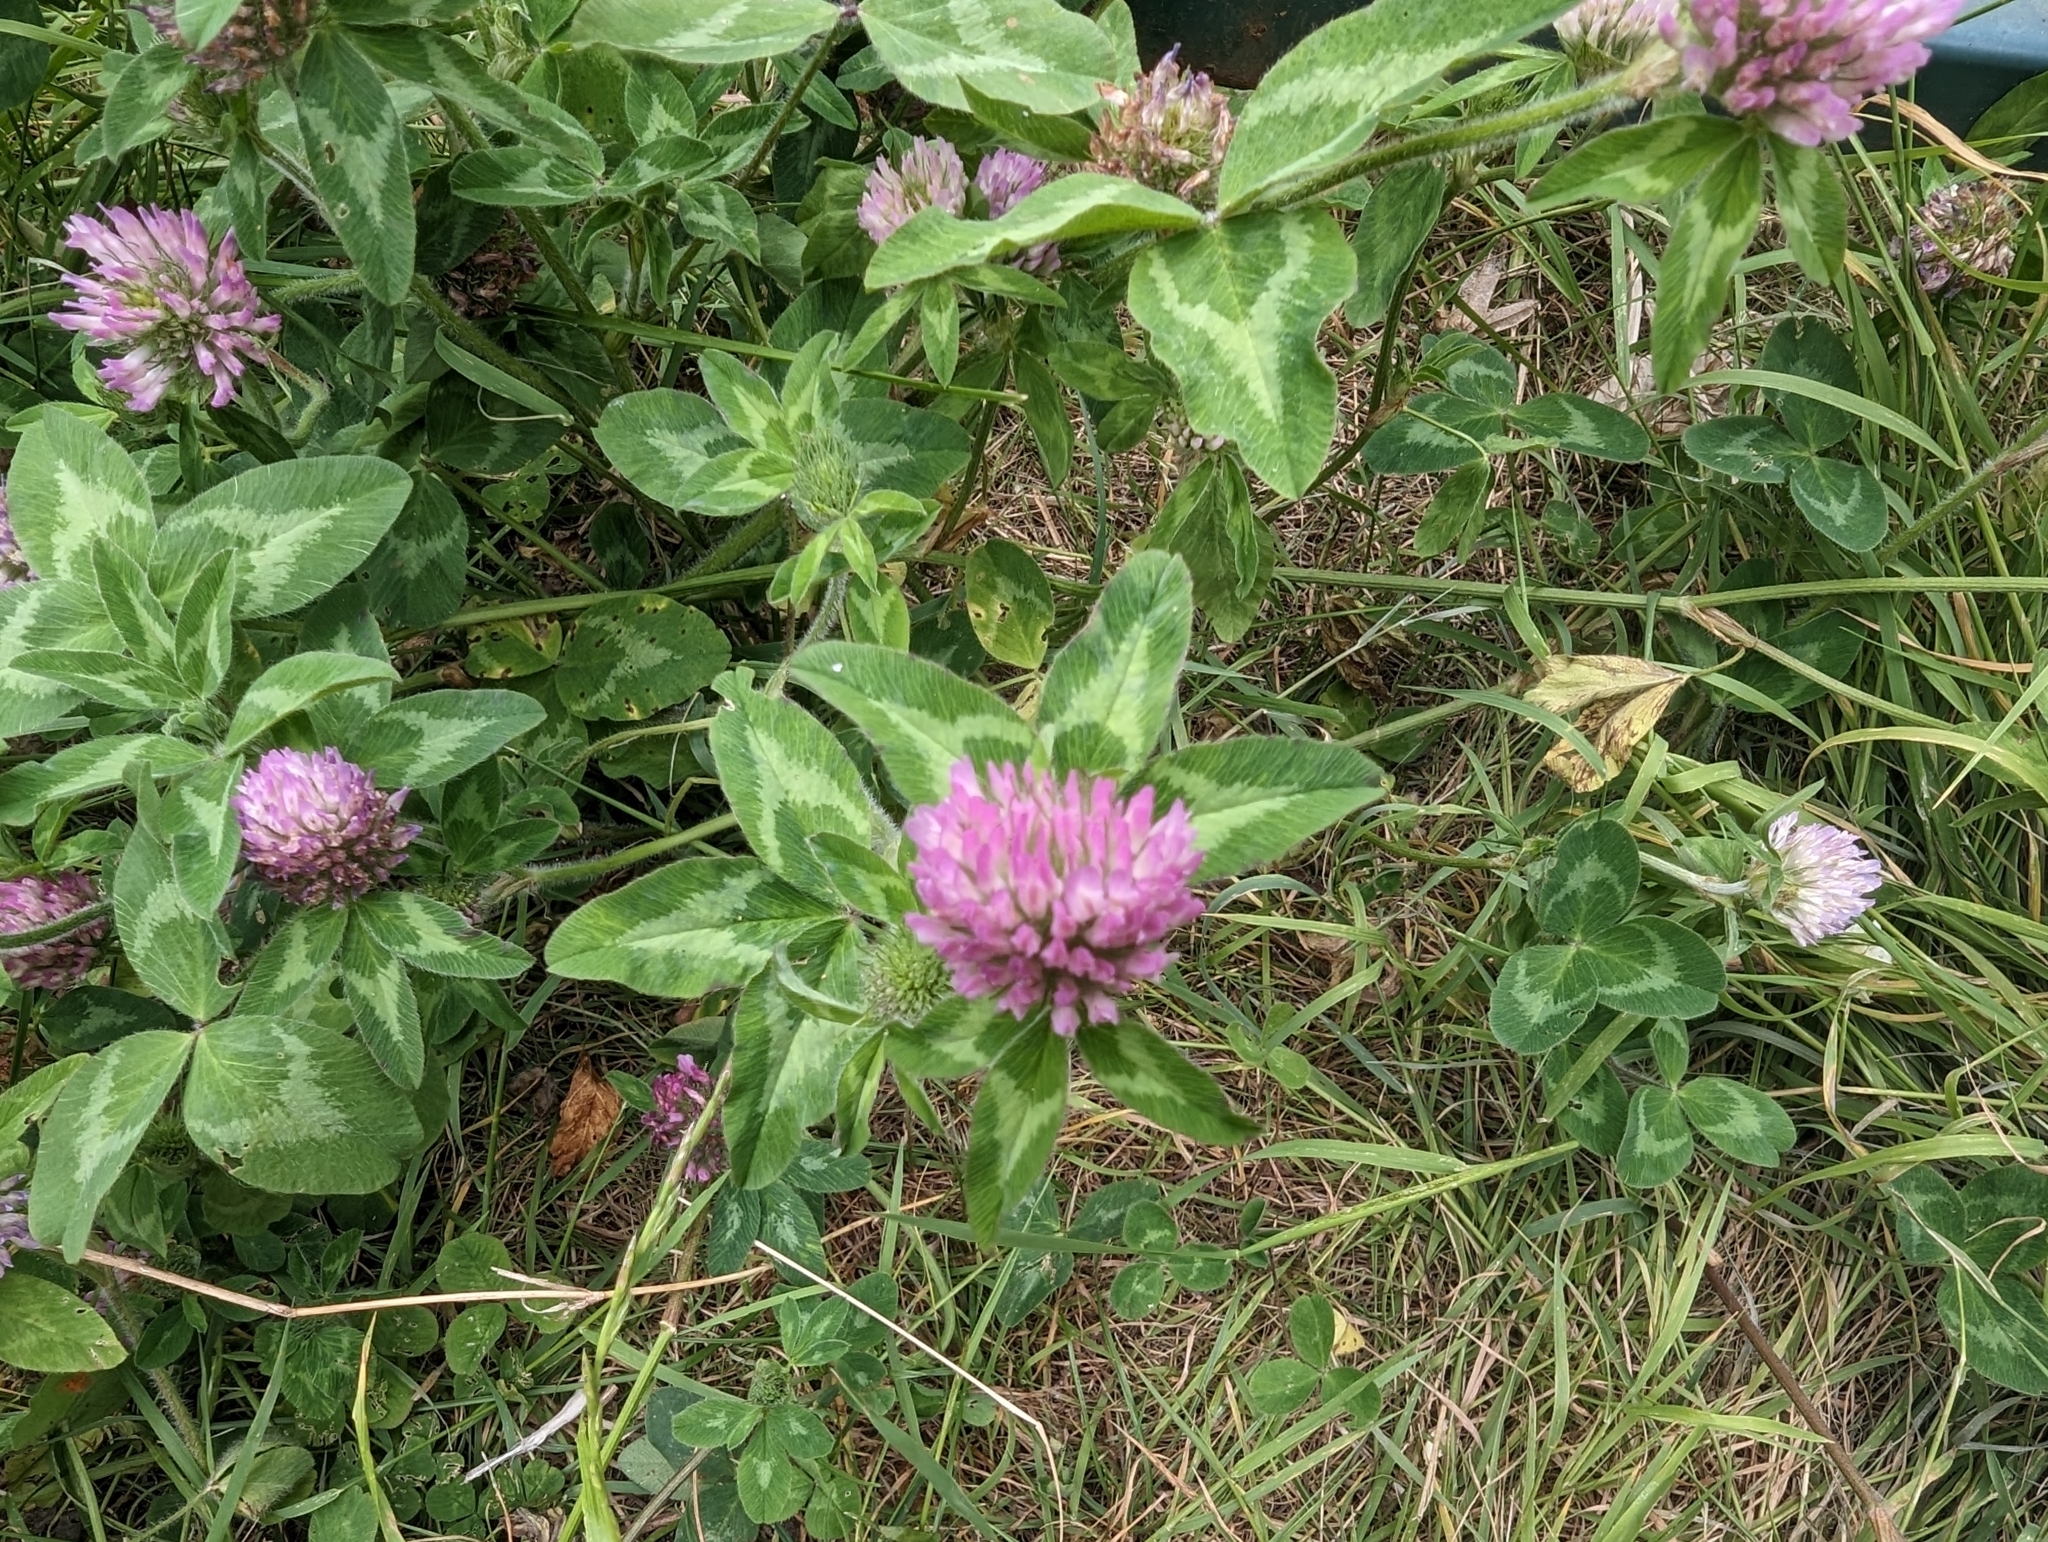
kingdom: Plantae
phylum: Tracheophyta
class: Magnoliopsida
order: Fabales
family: Fabaceae
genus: Trifolium
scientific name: Trifolium pratense
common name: Red clover
